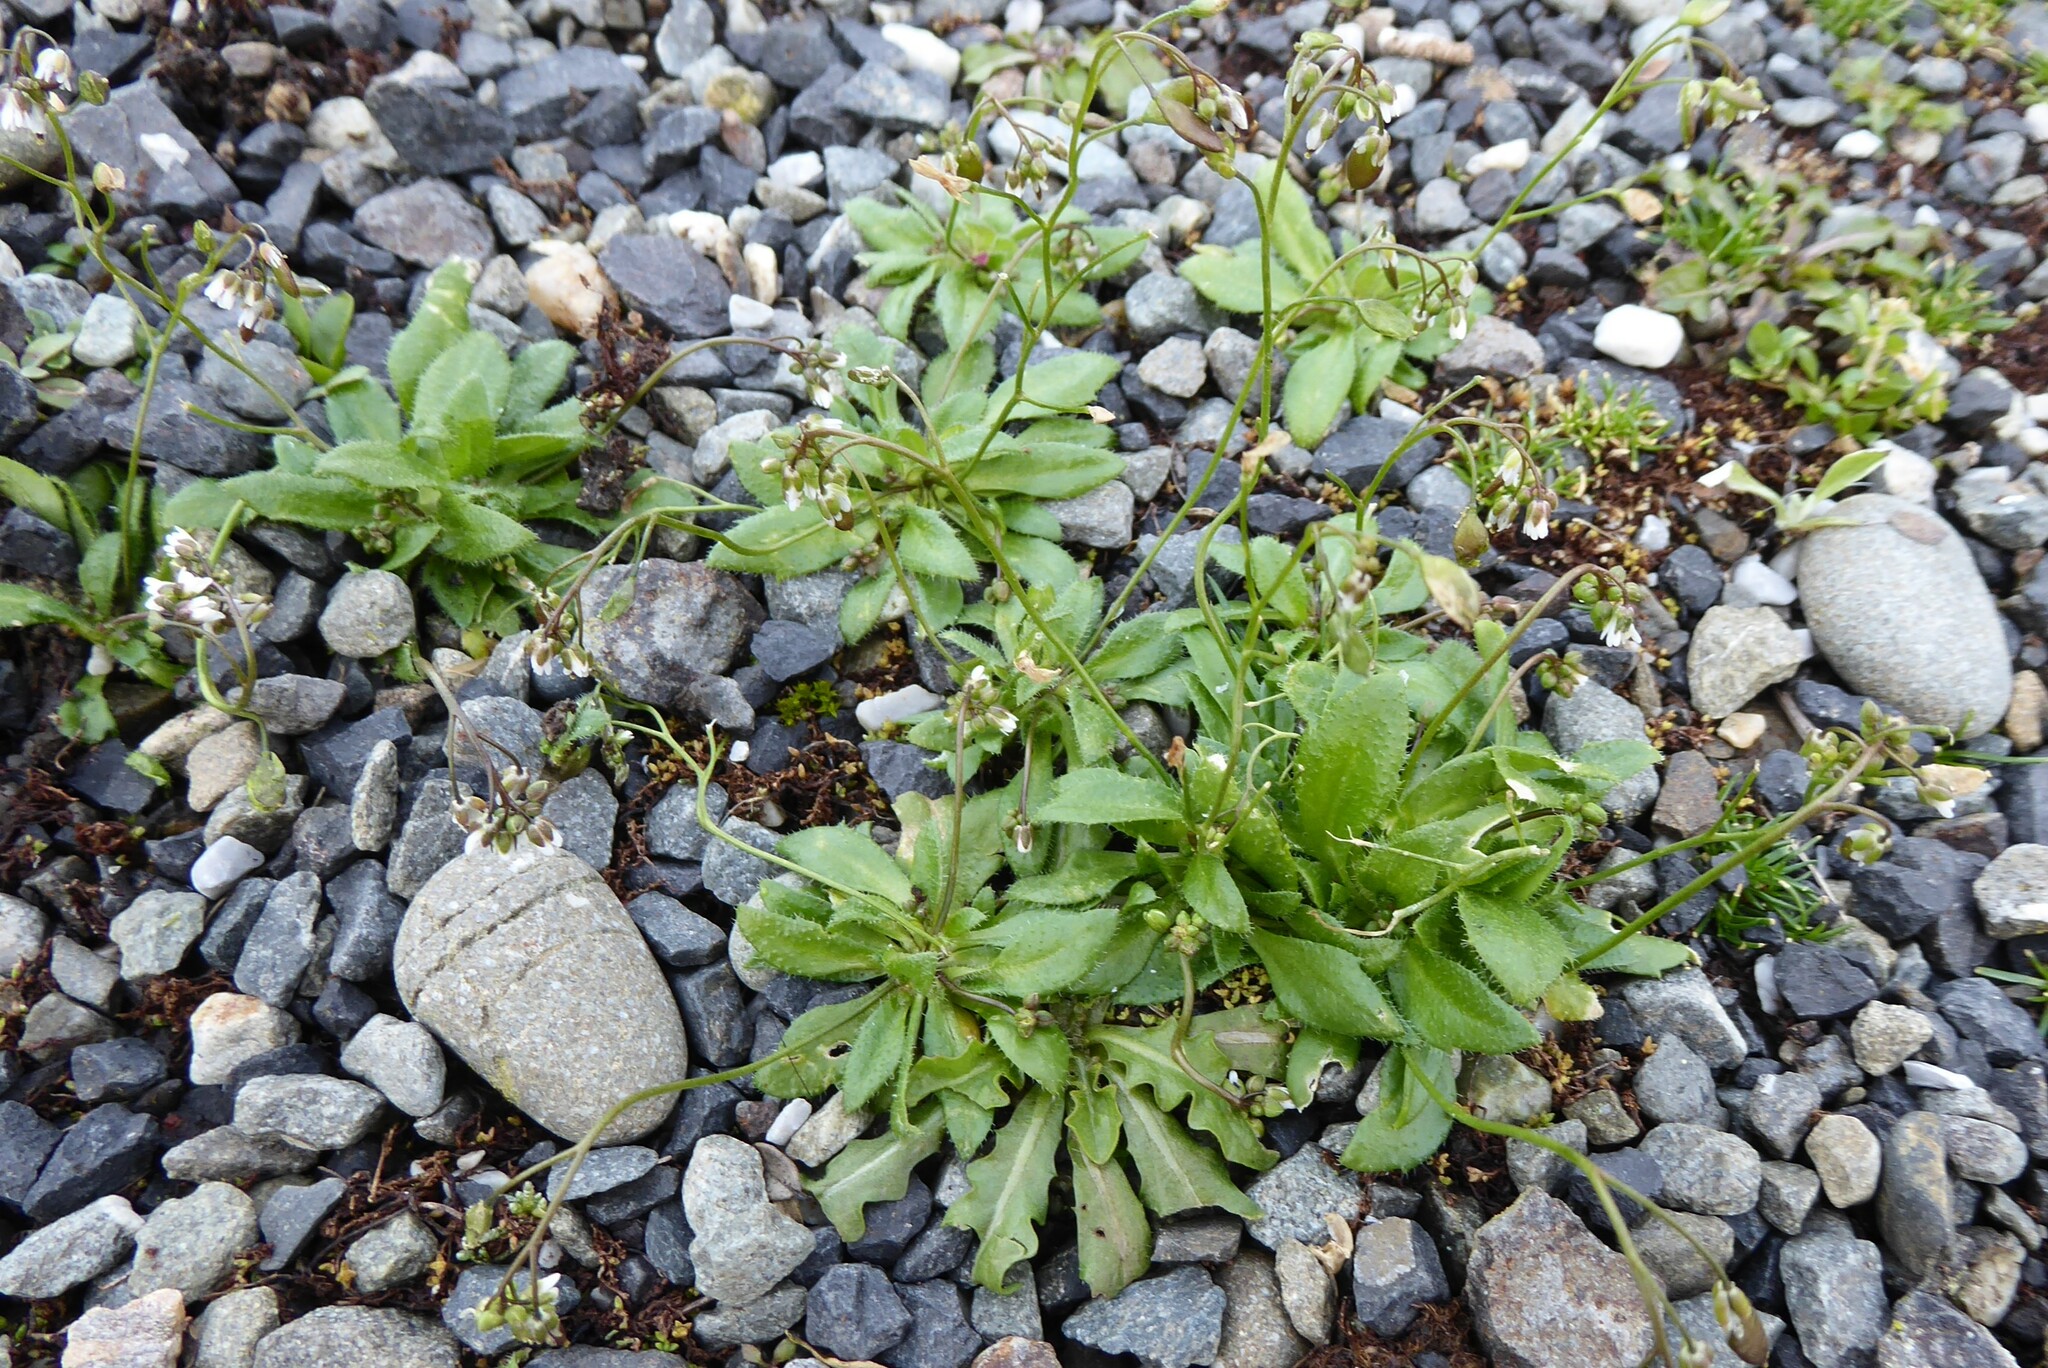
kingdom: Plantae
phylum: Tracheophyta
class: Magnoliopsida
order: Brassicales
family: Brassicaceae
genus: Draba
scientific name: Draba verna
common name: Spring draba
